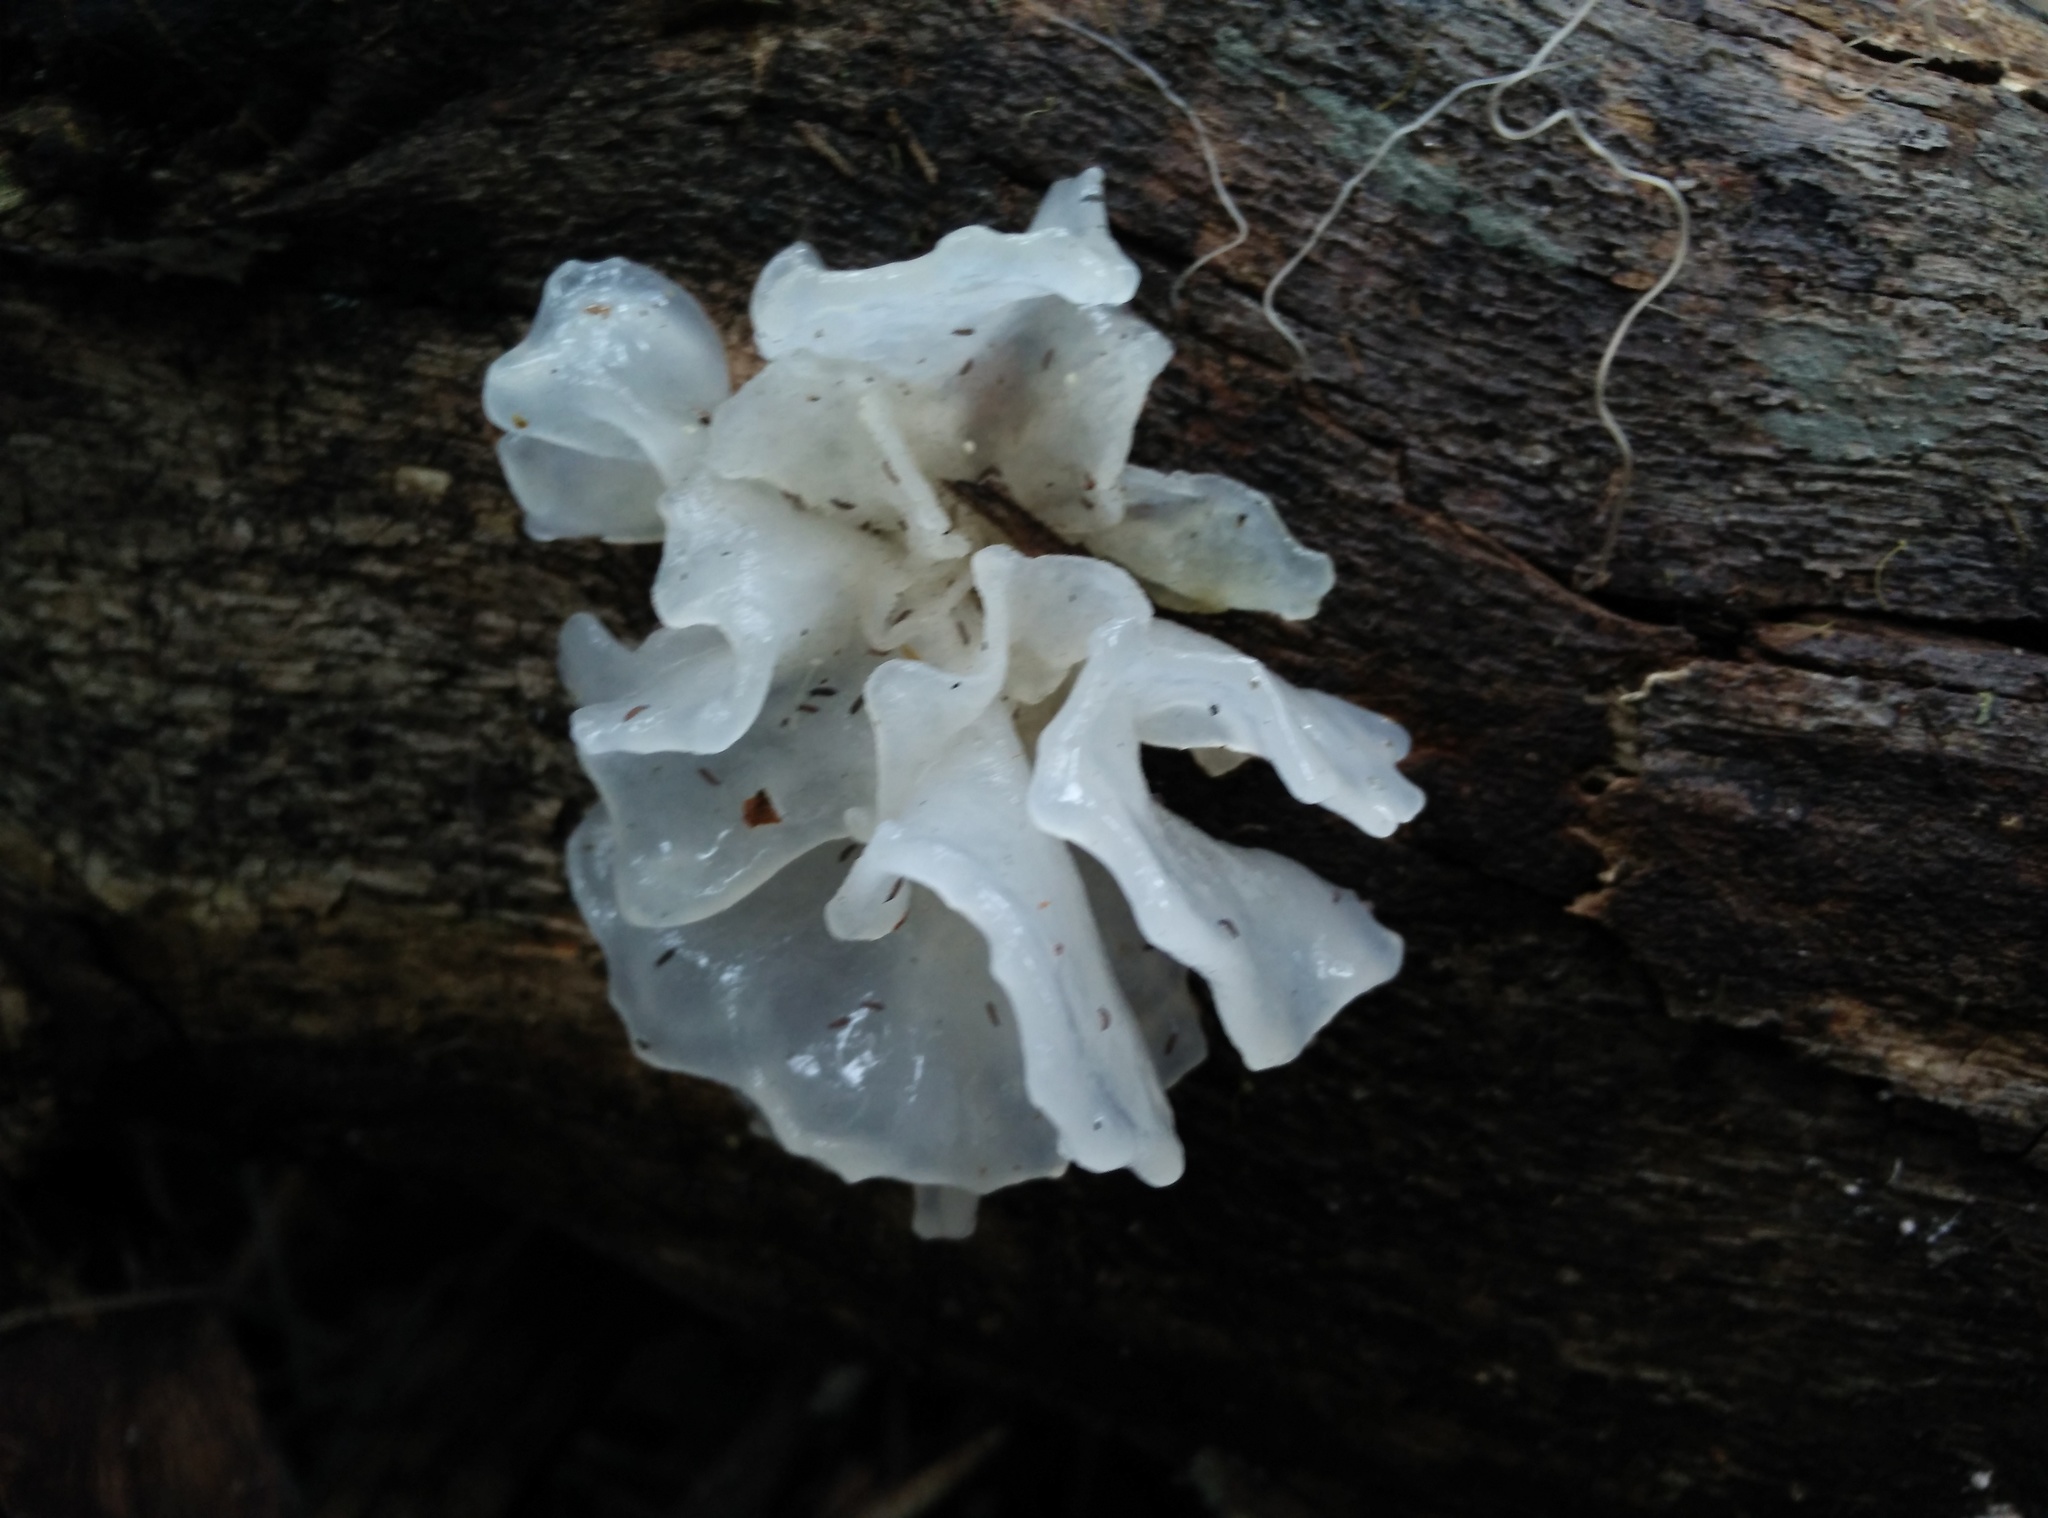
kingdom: Fungi
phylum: Basidiomycota
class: Tremellomycetes
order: Tremellales
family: Tremellaceae
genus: Tremella
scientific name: Tremella fuciformis
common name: Snow fungus
